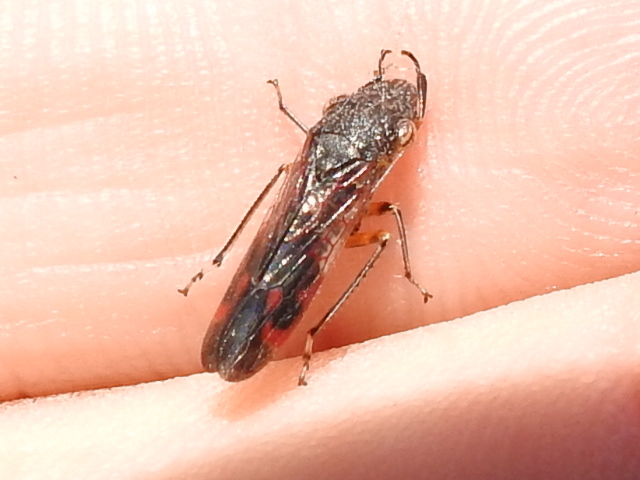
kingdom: Animalia
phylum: Arthropoda
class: Insecta
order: Hemiptera
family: Cicadellidae
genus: Homalodisca
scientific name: Homalodisca vitripennis
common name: Glassy-winged sharpshooter
